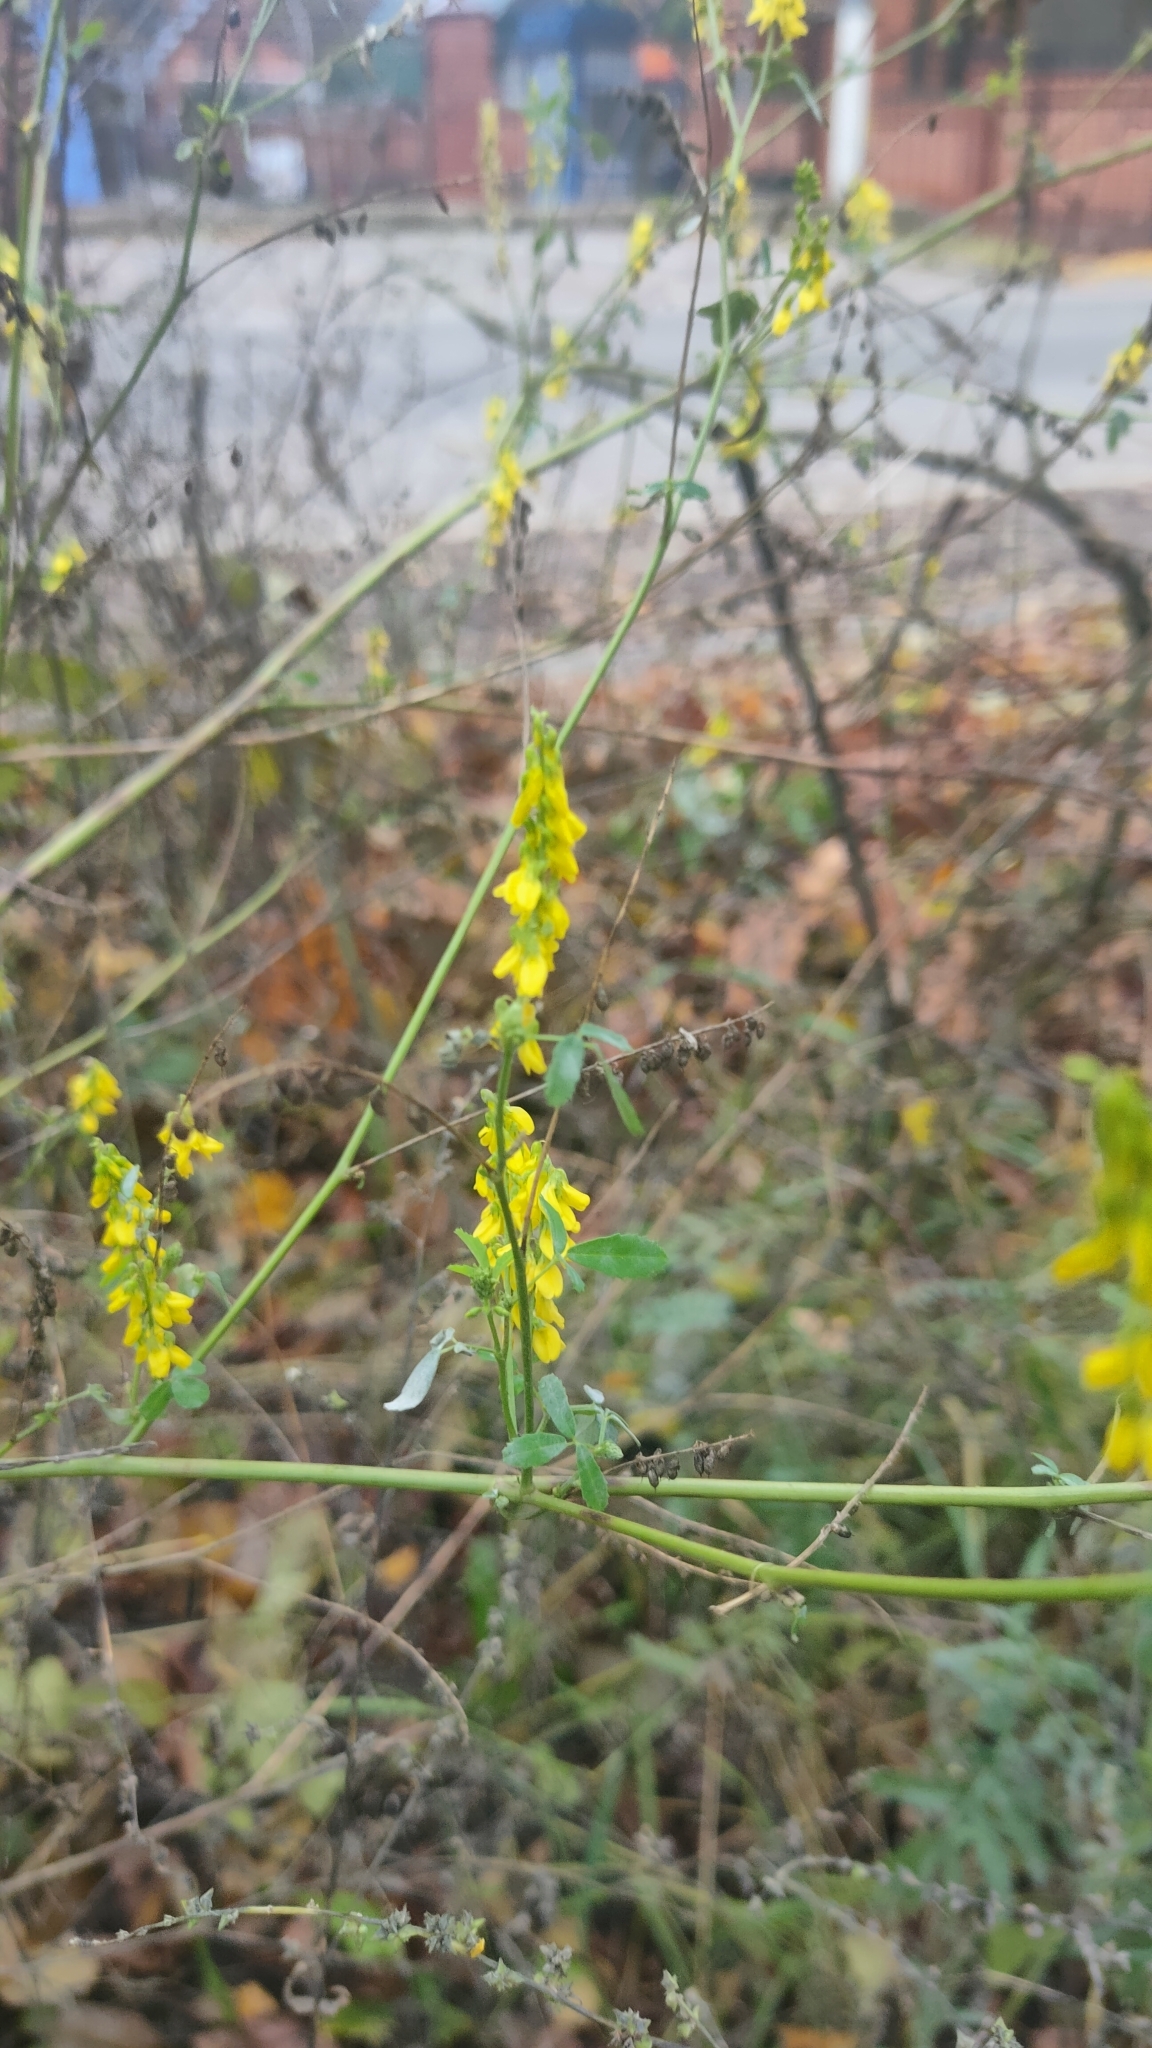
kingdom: Plantae
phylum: Tracheophyta
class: Magnoliopsida
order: Fabales
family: Fabaceae
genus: Melilotus
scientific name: Melilotus officinalis
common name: Sweetclover
